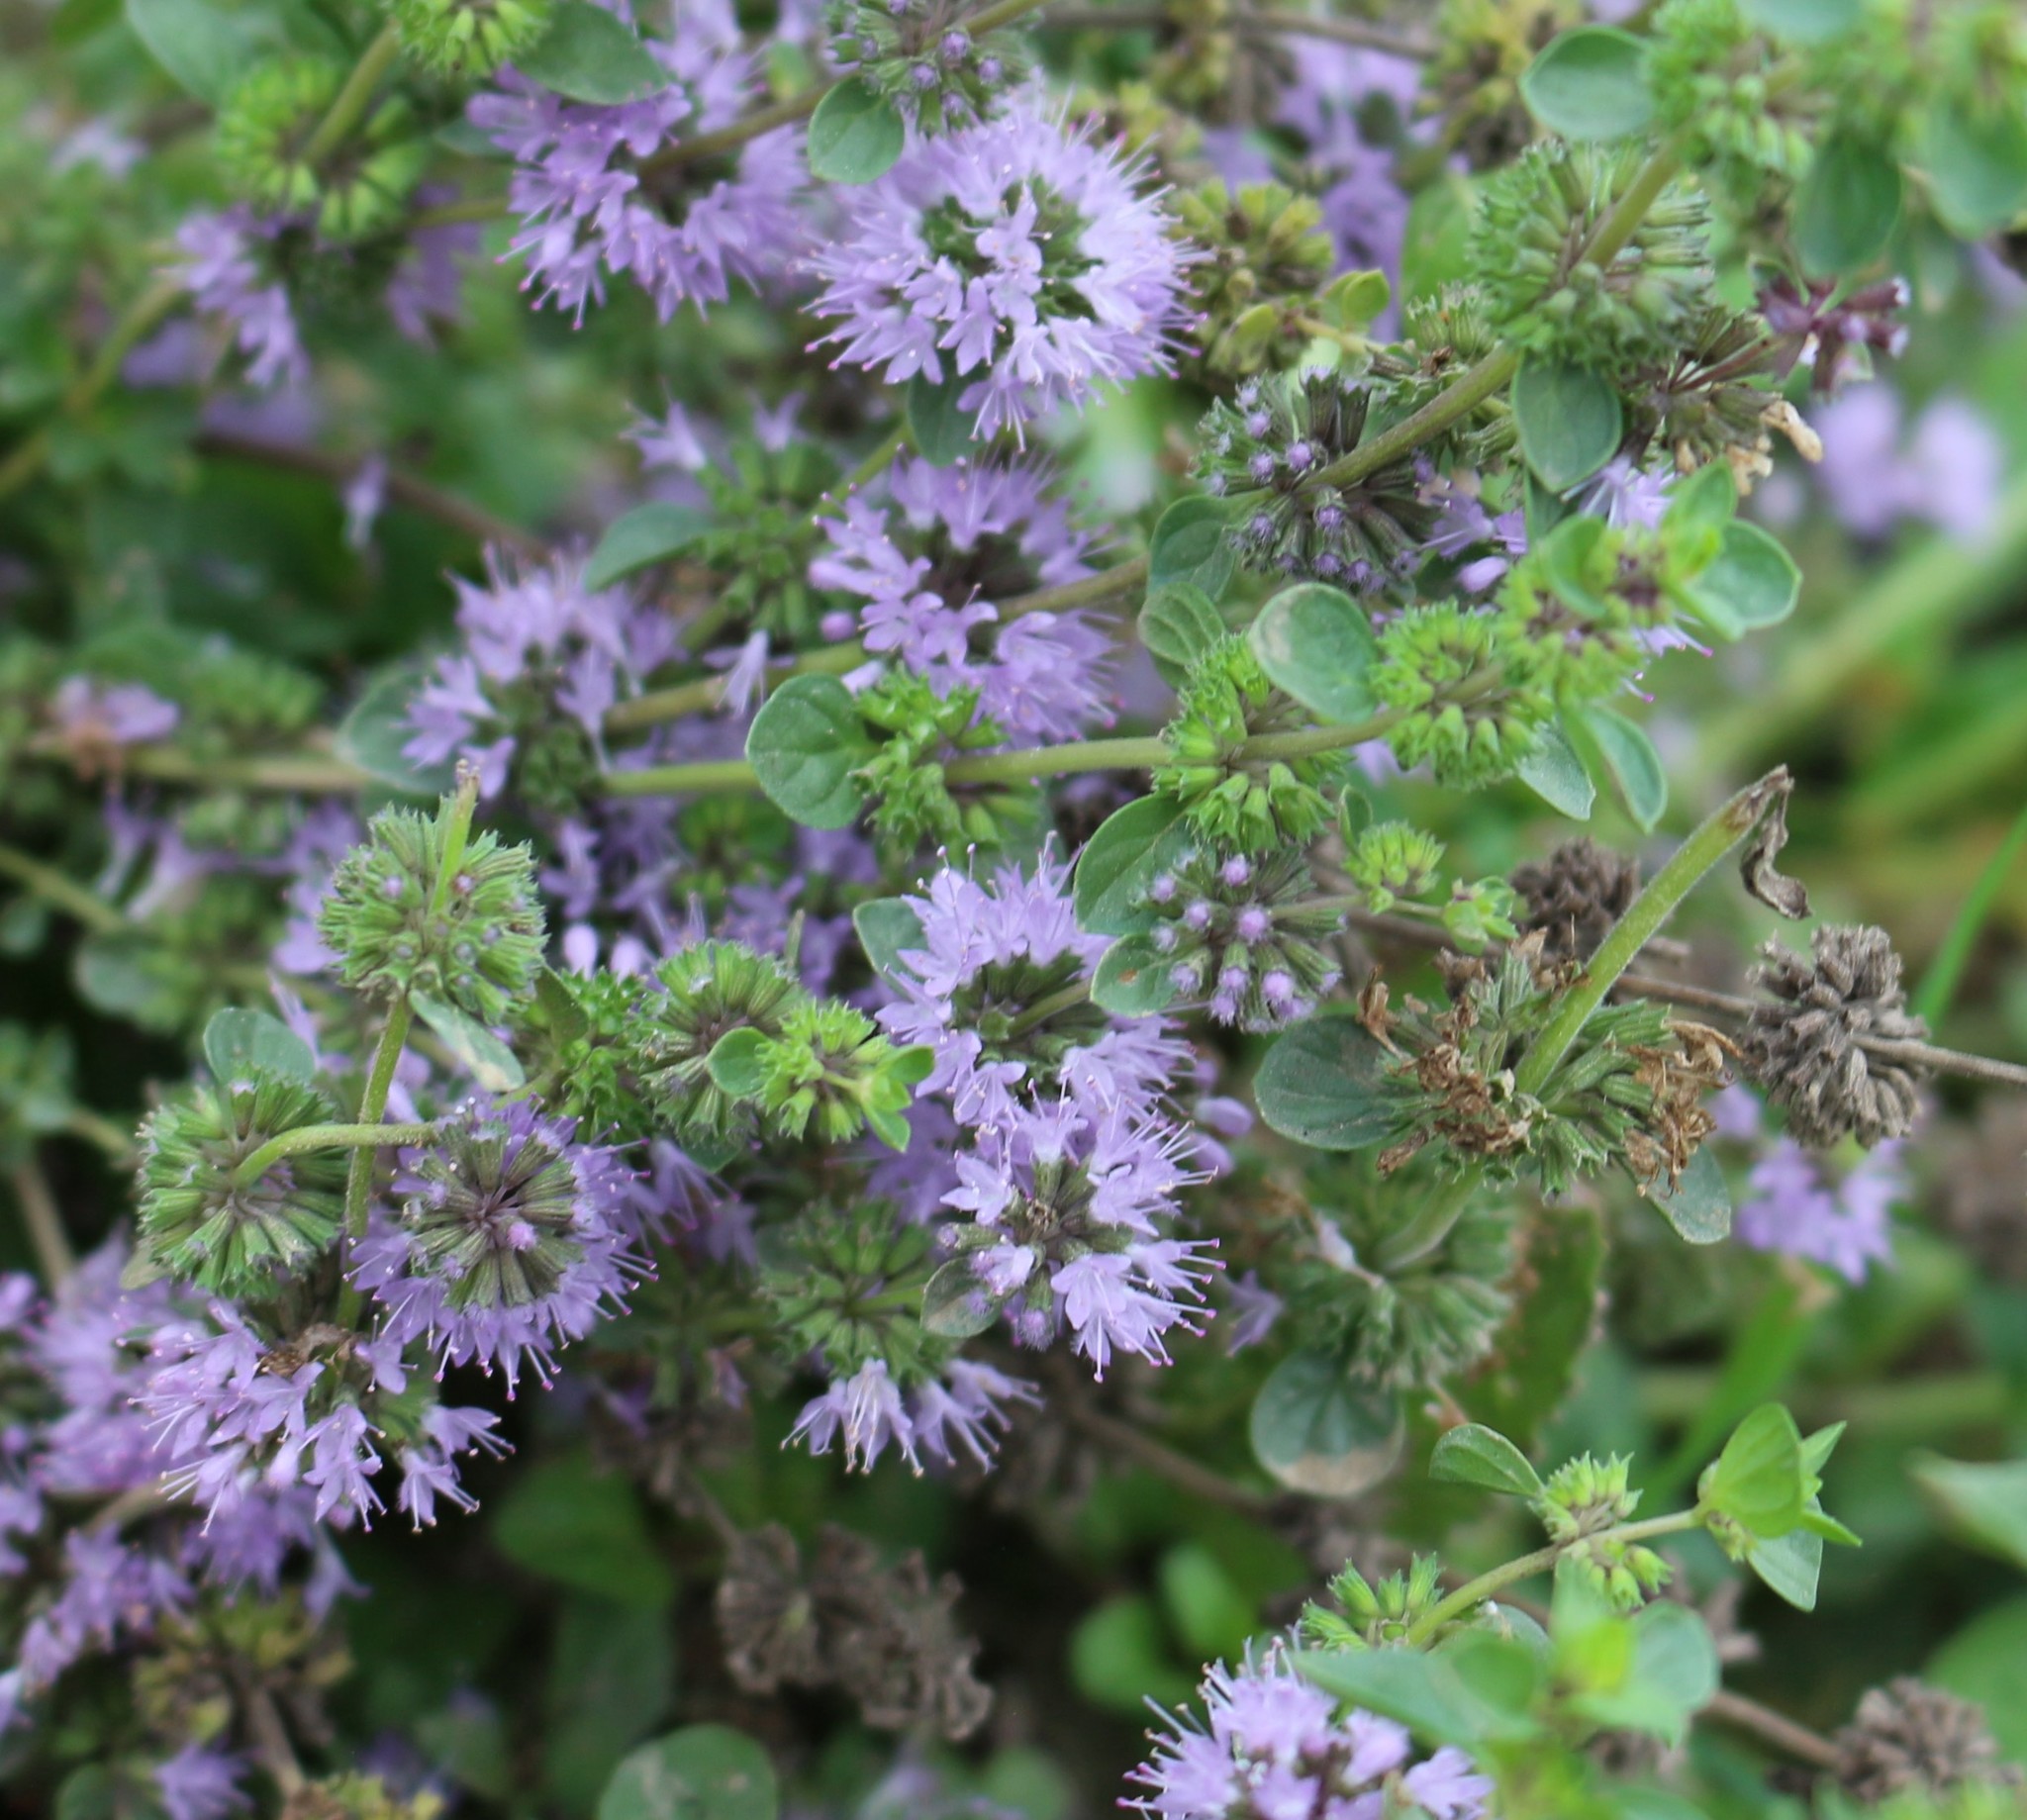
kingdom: Plantae
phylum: Tracheophyta
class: Magnoliopsida
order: Lamiales
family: Lamiaceae
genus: Mentha
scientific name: Mentha pulegium
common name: Pennyroyal
